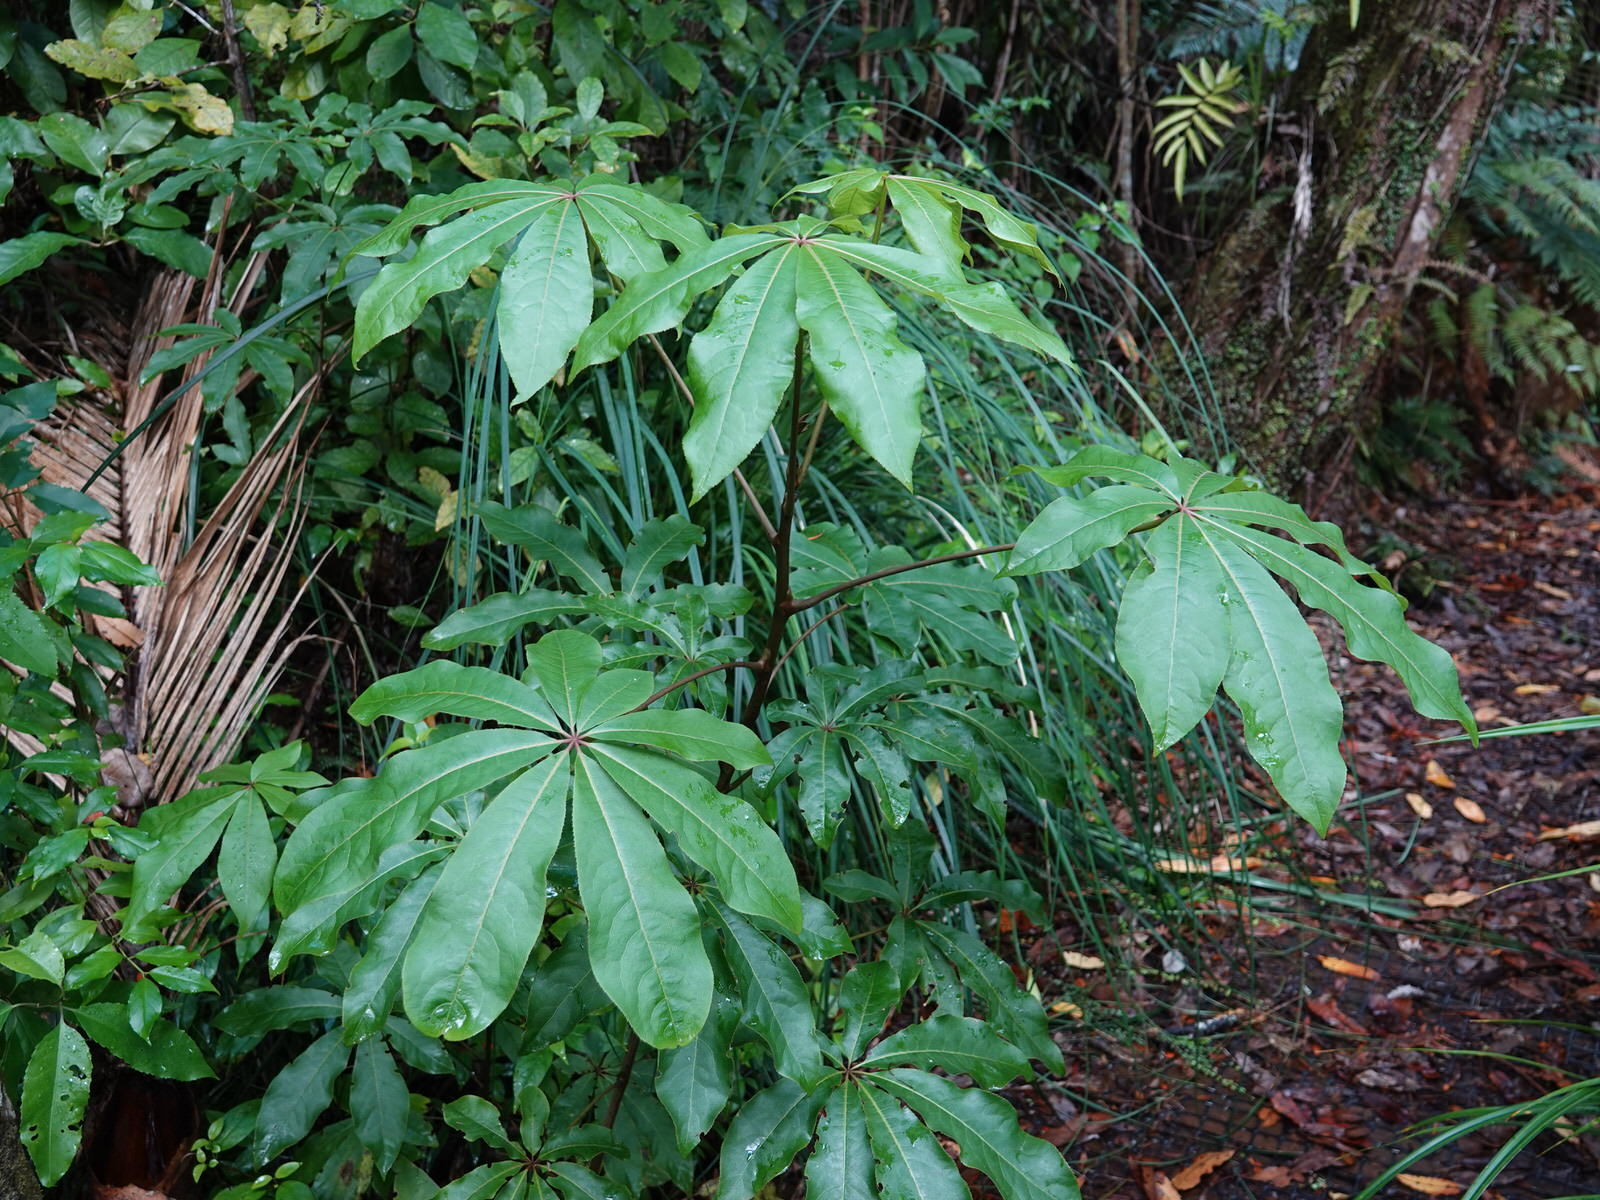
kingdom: Plantae
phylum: Tracheophyta
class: Magnoliopsida
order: Apiales
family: Araliaceae
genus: Schefflera
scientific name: Schefflera digitata
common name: Pate
